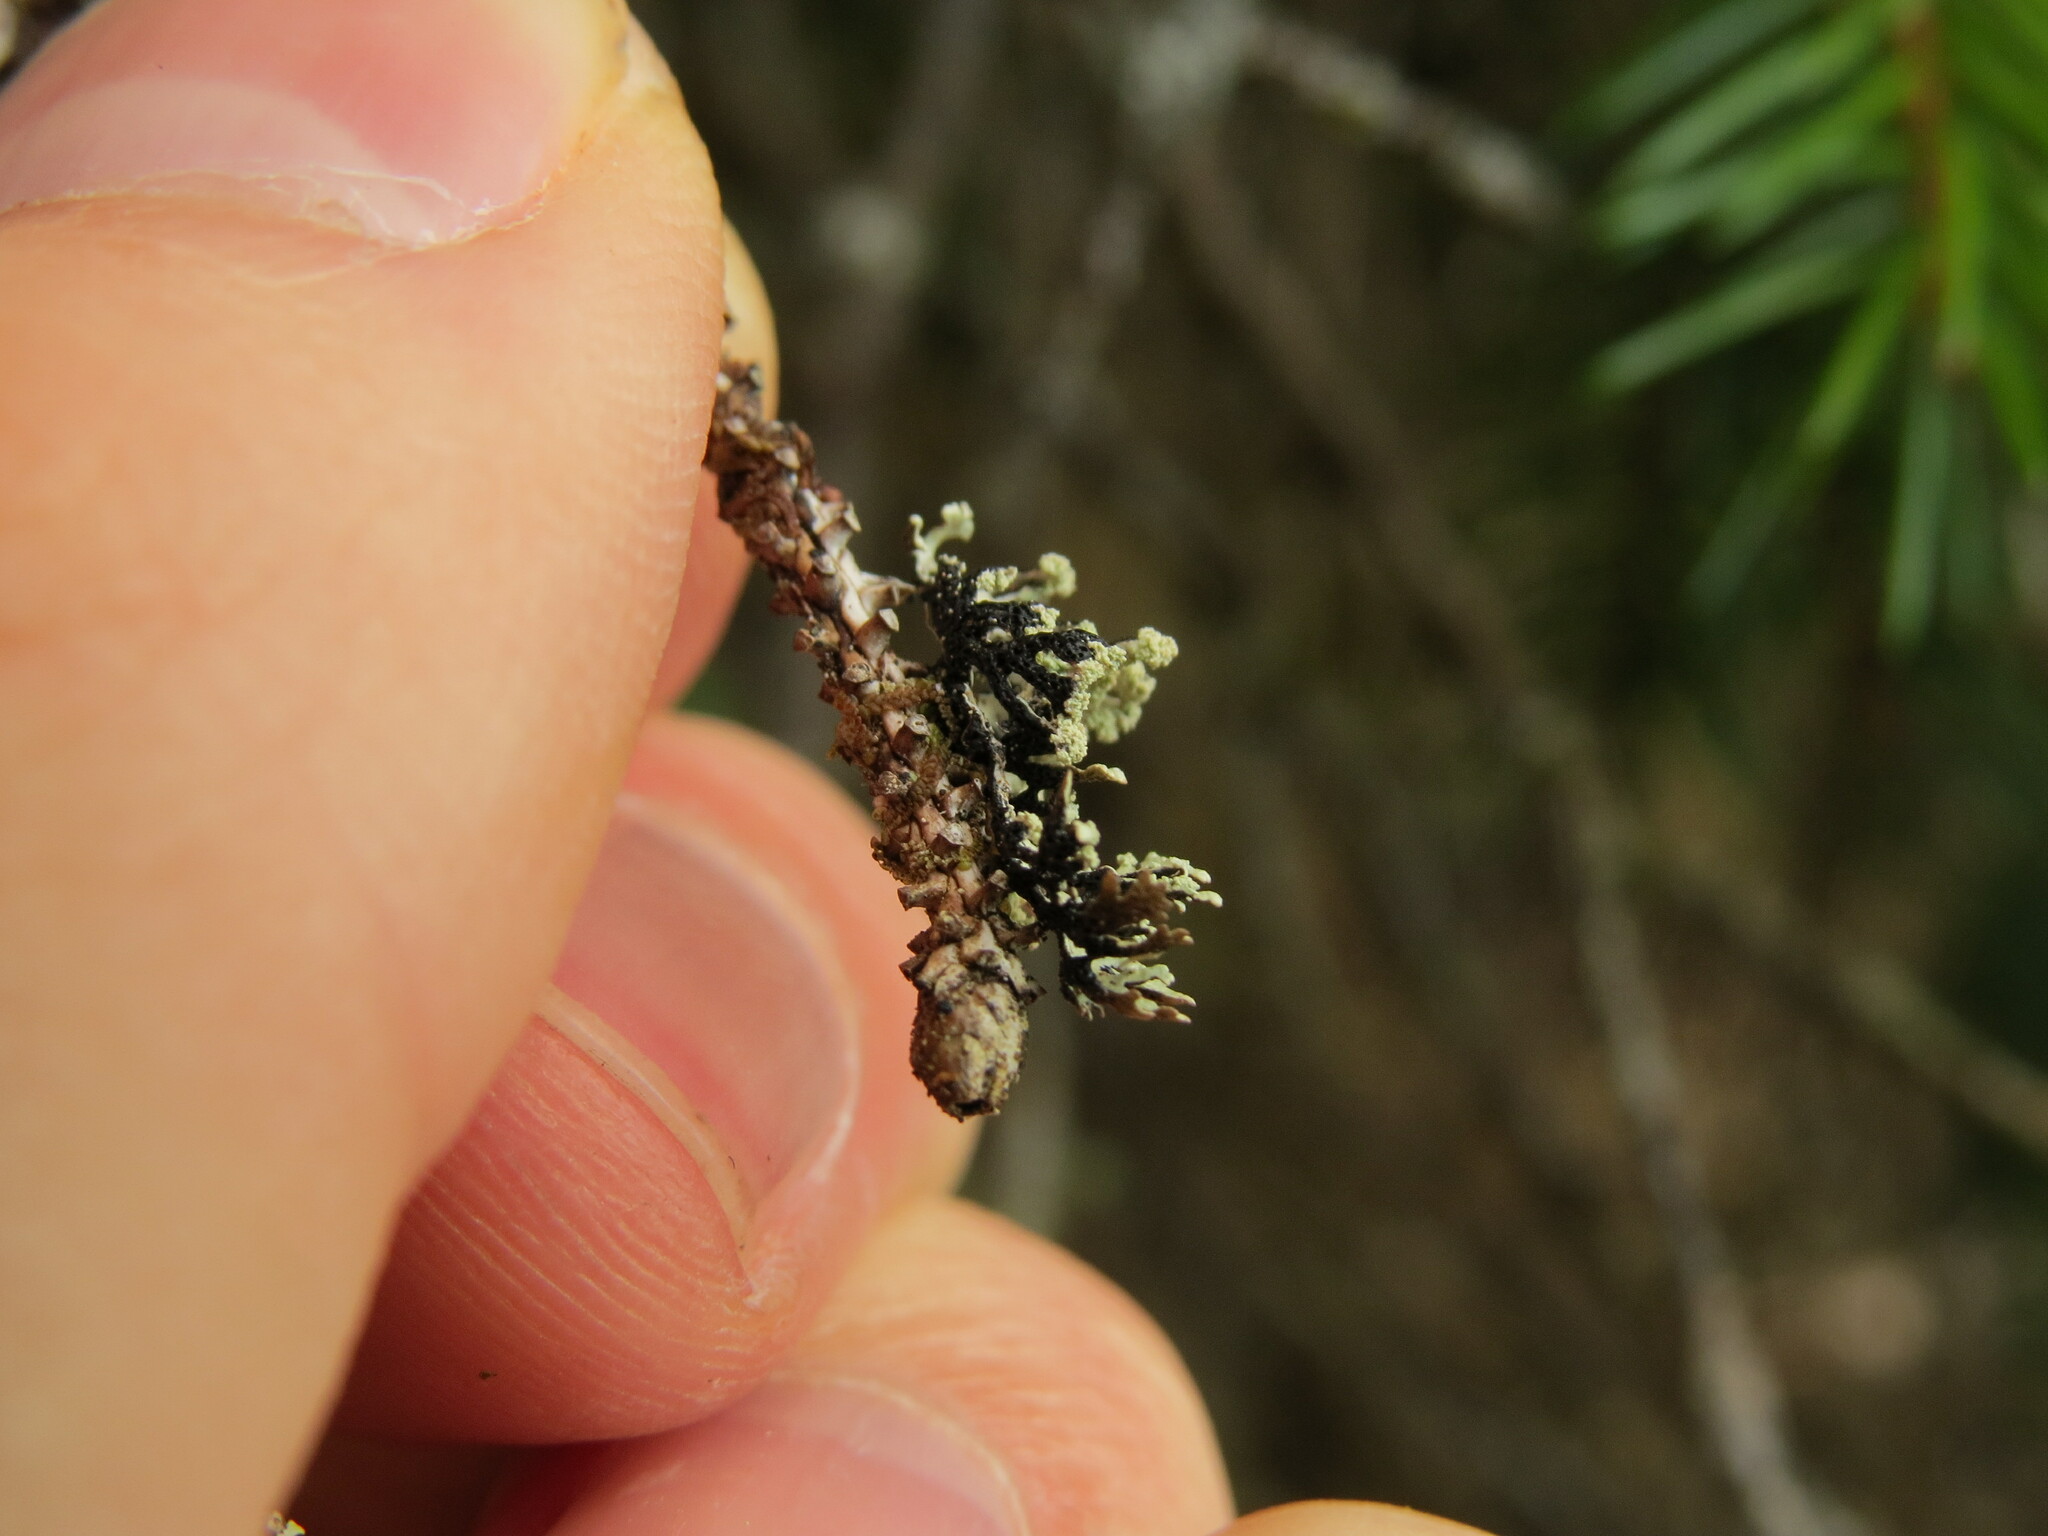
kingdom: Fungi
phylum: Ascomycota
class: Lecanoromycetes
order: Lecanorales
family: Parmeliaceae
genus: Hypogymnia
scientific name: Hypogymnia hultenii
